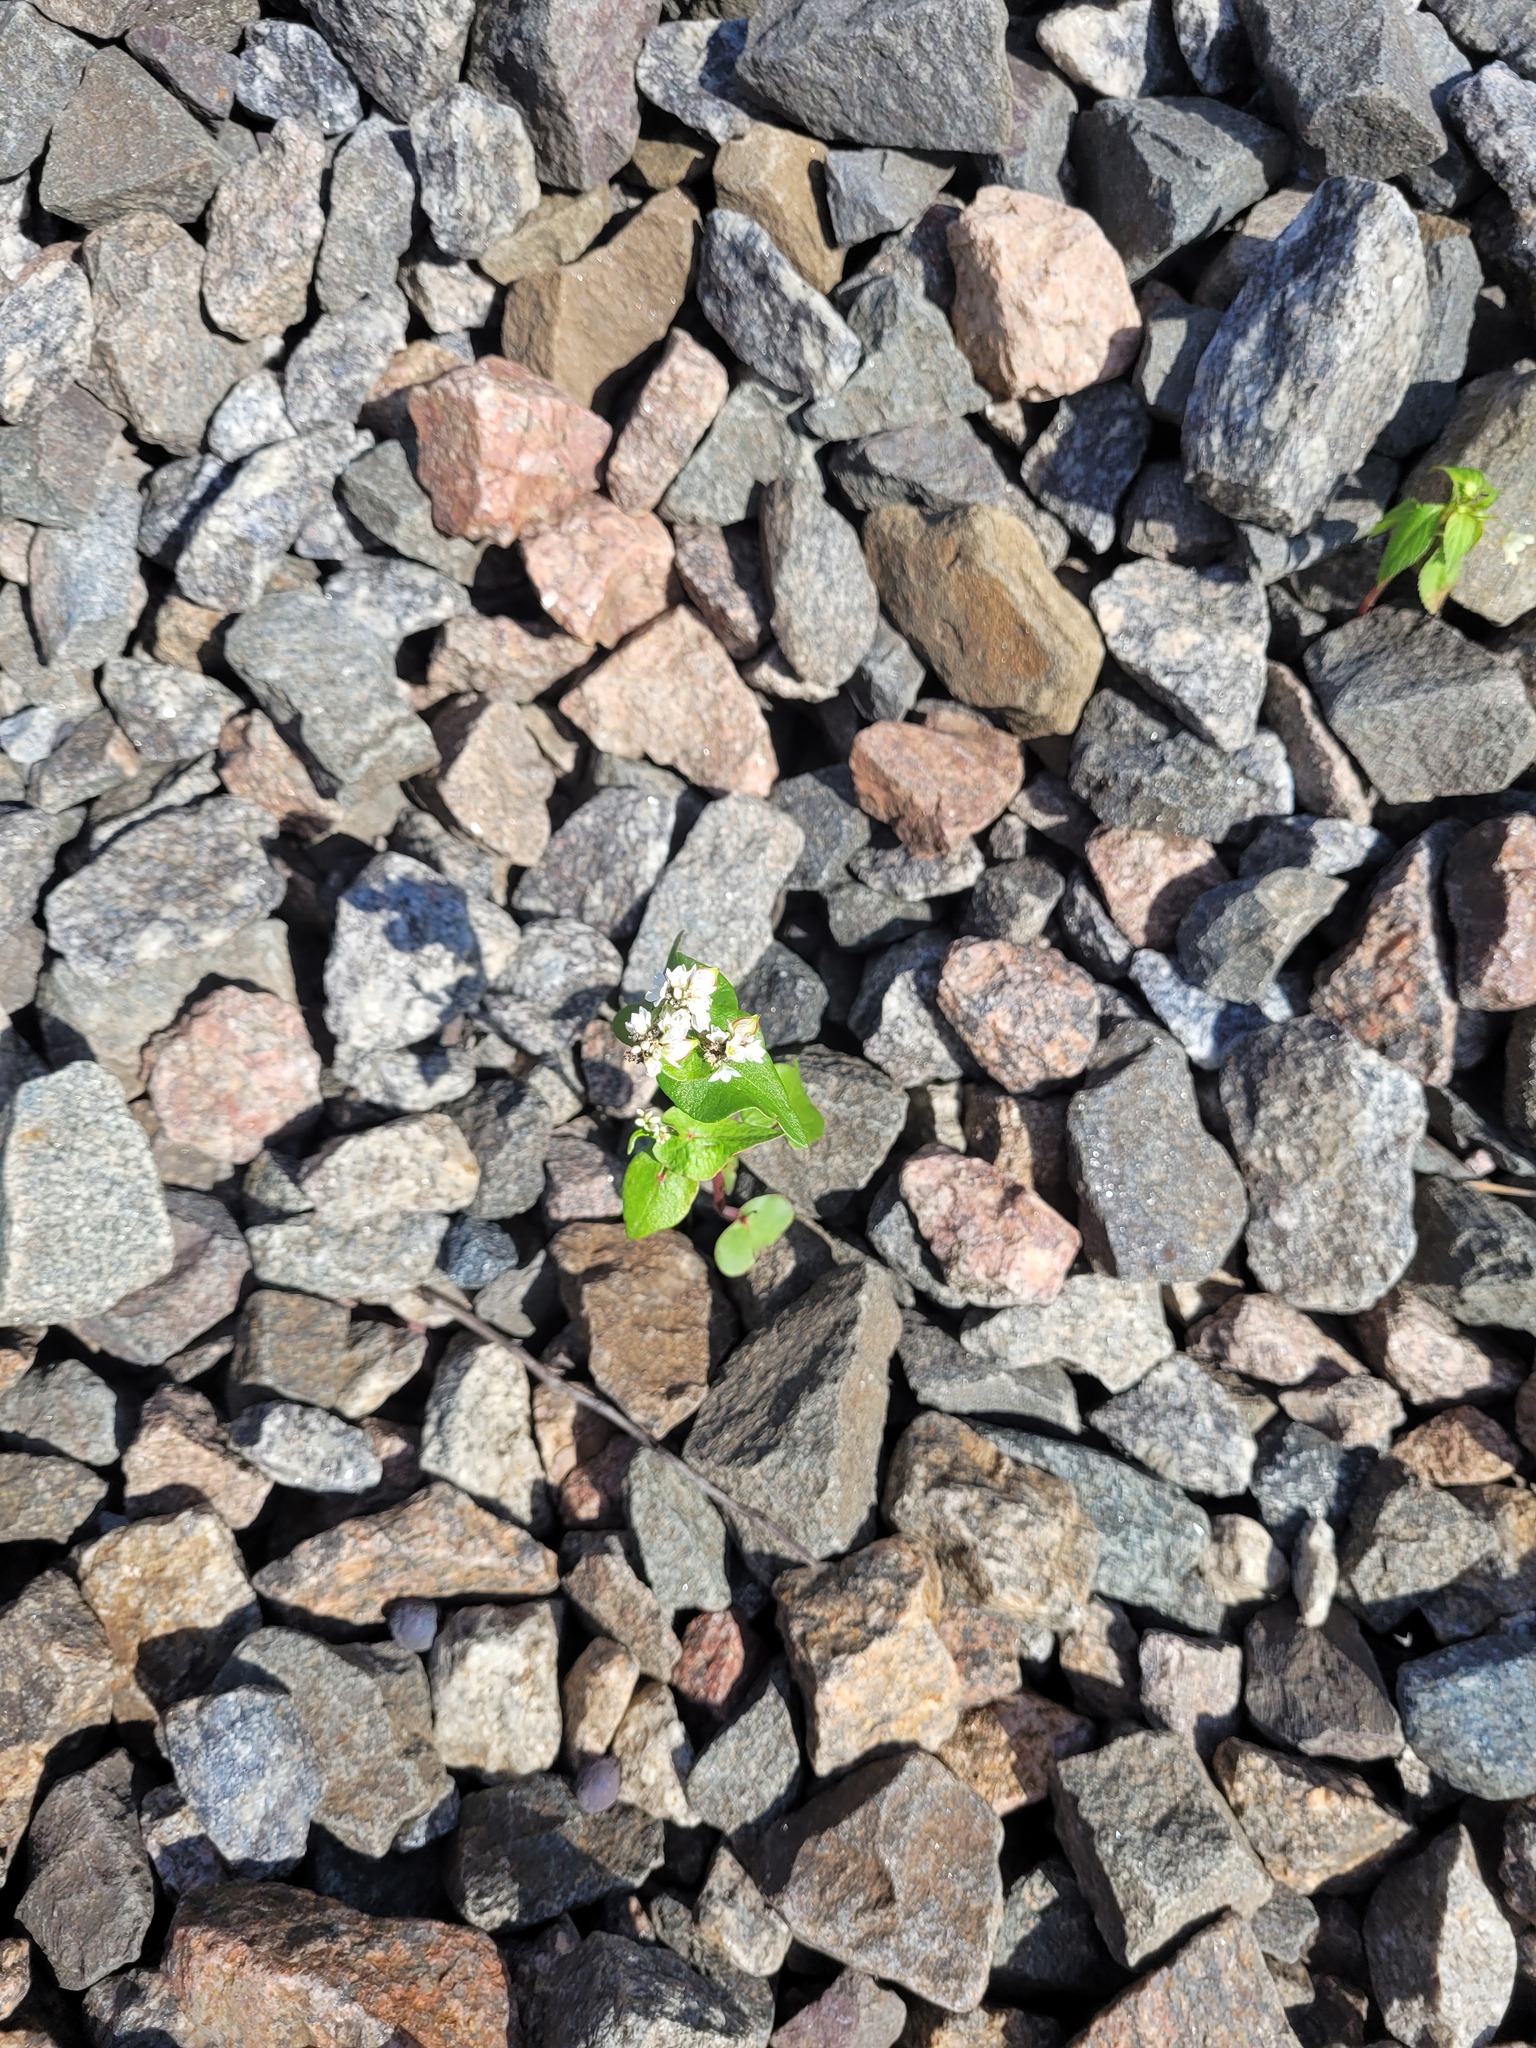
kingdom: Plantae
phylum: Tracheophyta
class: Magnoliopsida
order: Caryophyllales
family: Polygonaceae
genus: Fagopyrum
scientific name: Fagopyrum esculentum
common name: Buckwheat
